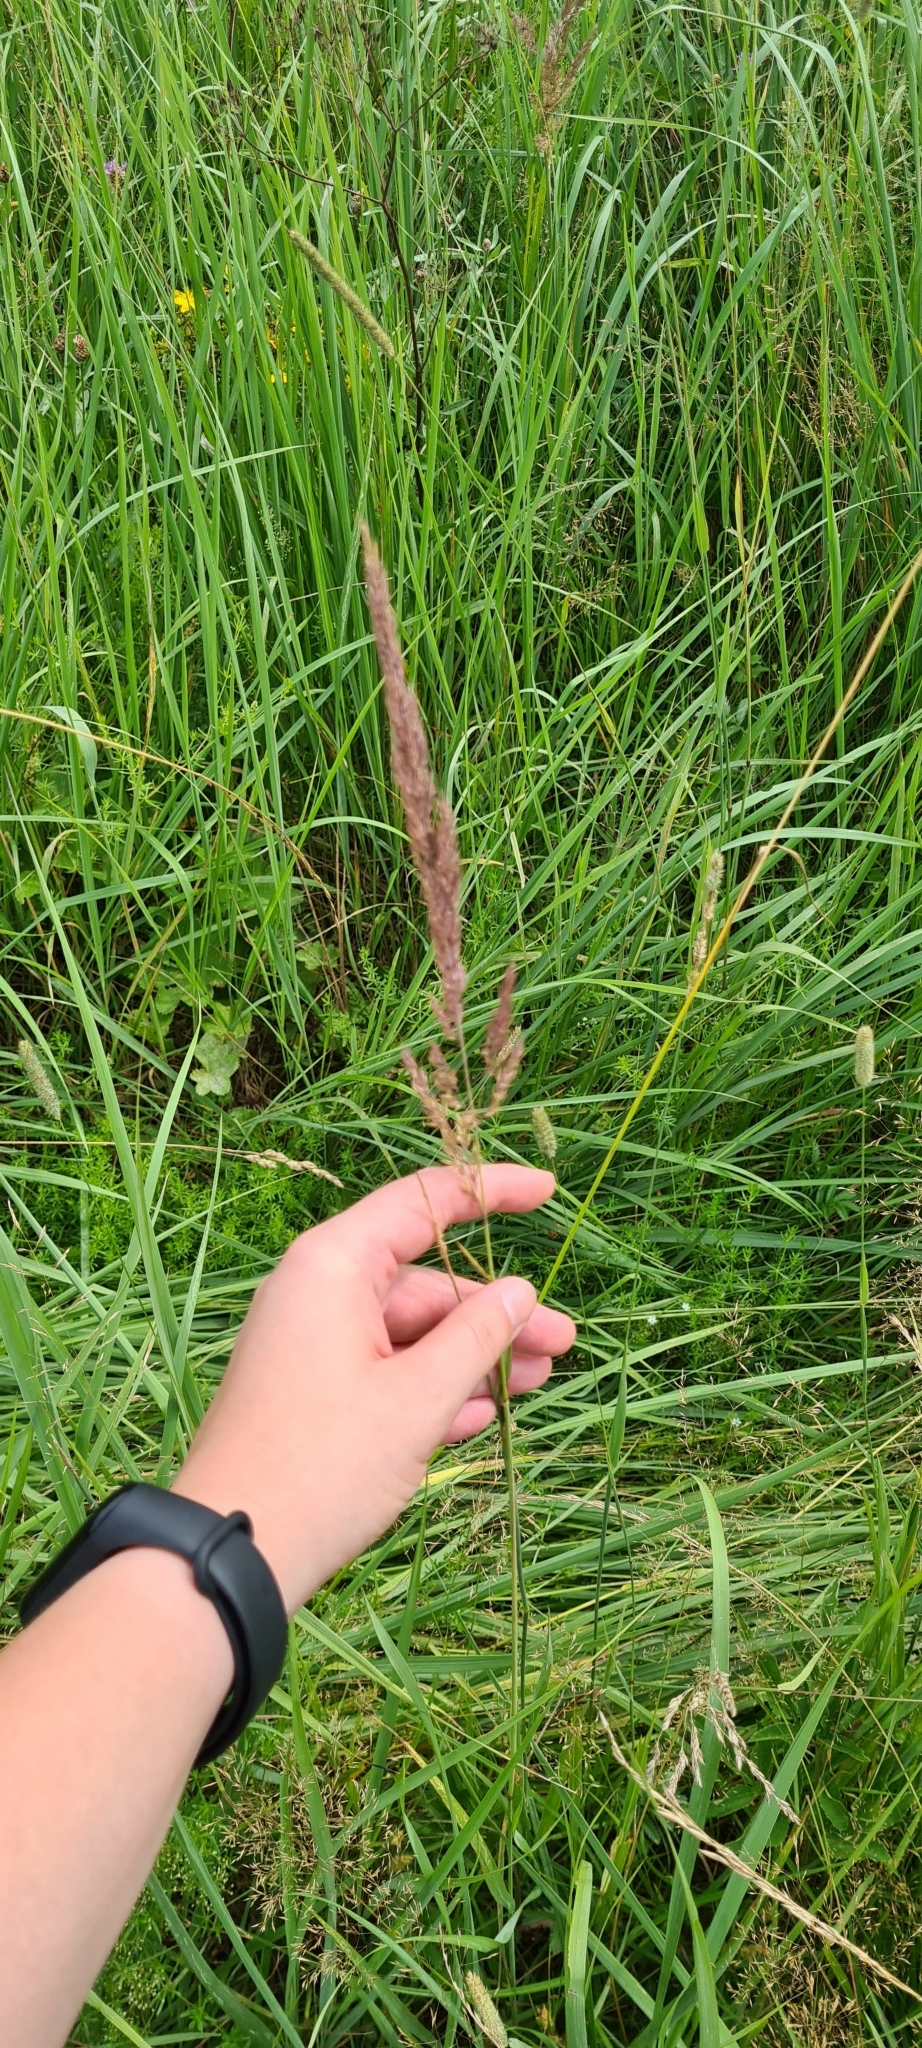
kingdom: Plantae
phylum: Tracheophyta
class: Liliopsida
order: Poales
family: Poaceae
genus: Calamagrostis
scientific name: Calamagrostis epigejos
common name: Wood small-reed
